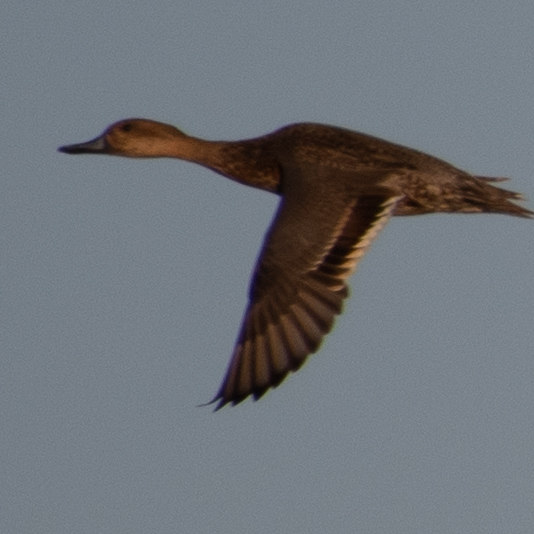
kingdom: Animalia
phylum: Chordata
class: Aves
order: Anseriformes
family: Anatidae
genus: Anas
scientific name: Anas acuta
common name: Northern pintail
